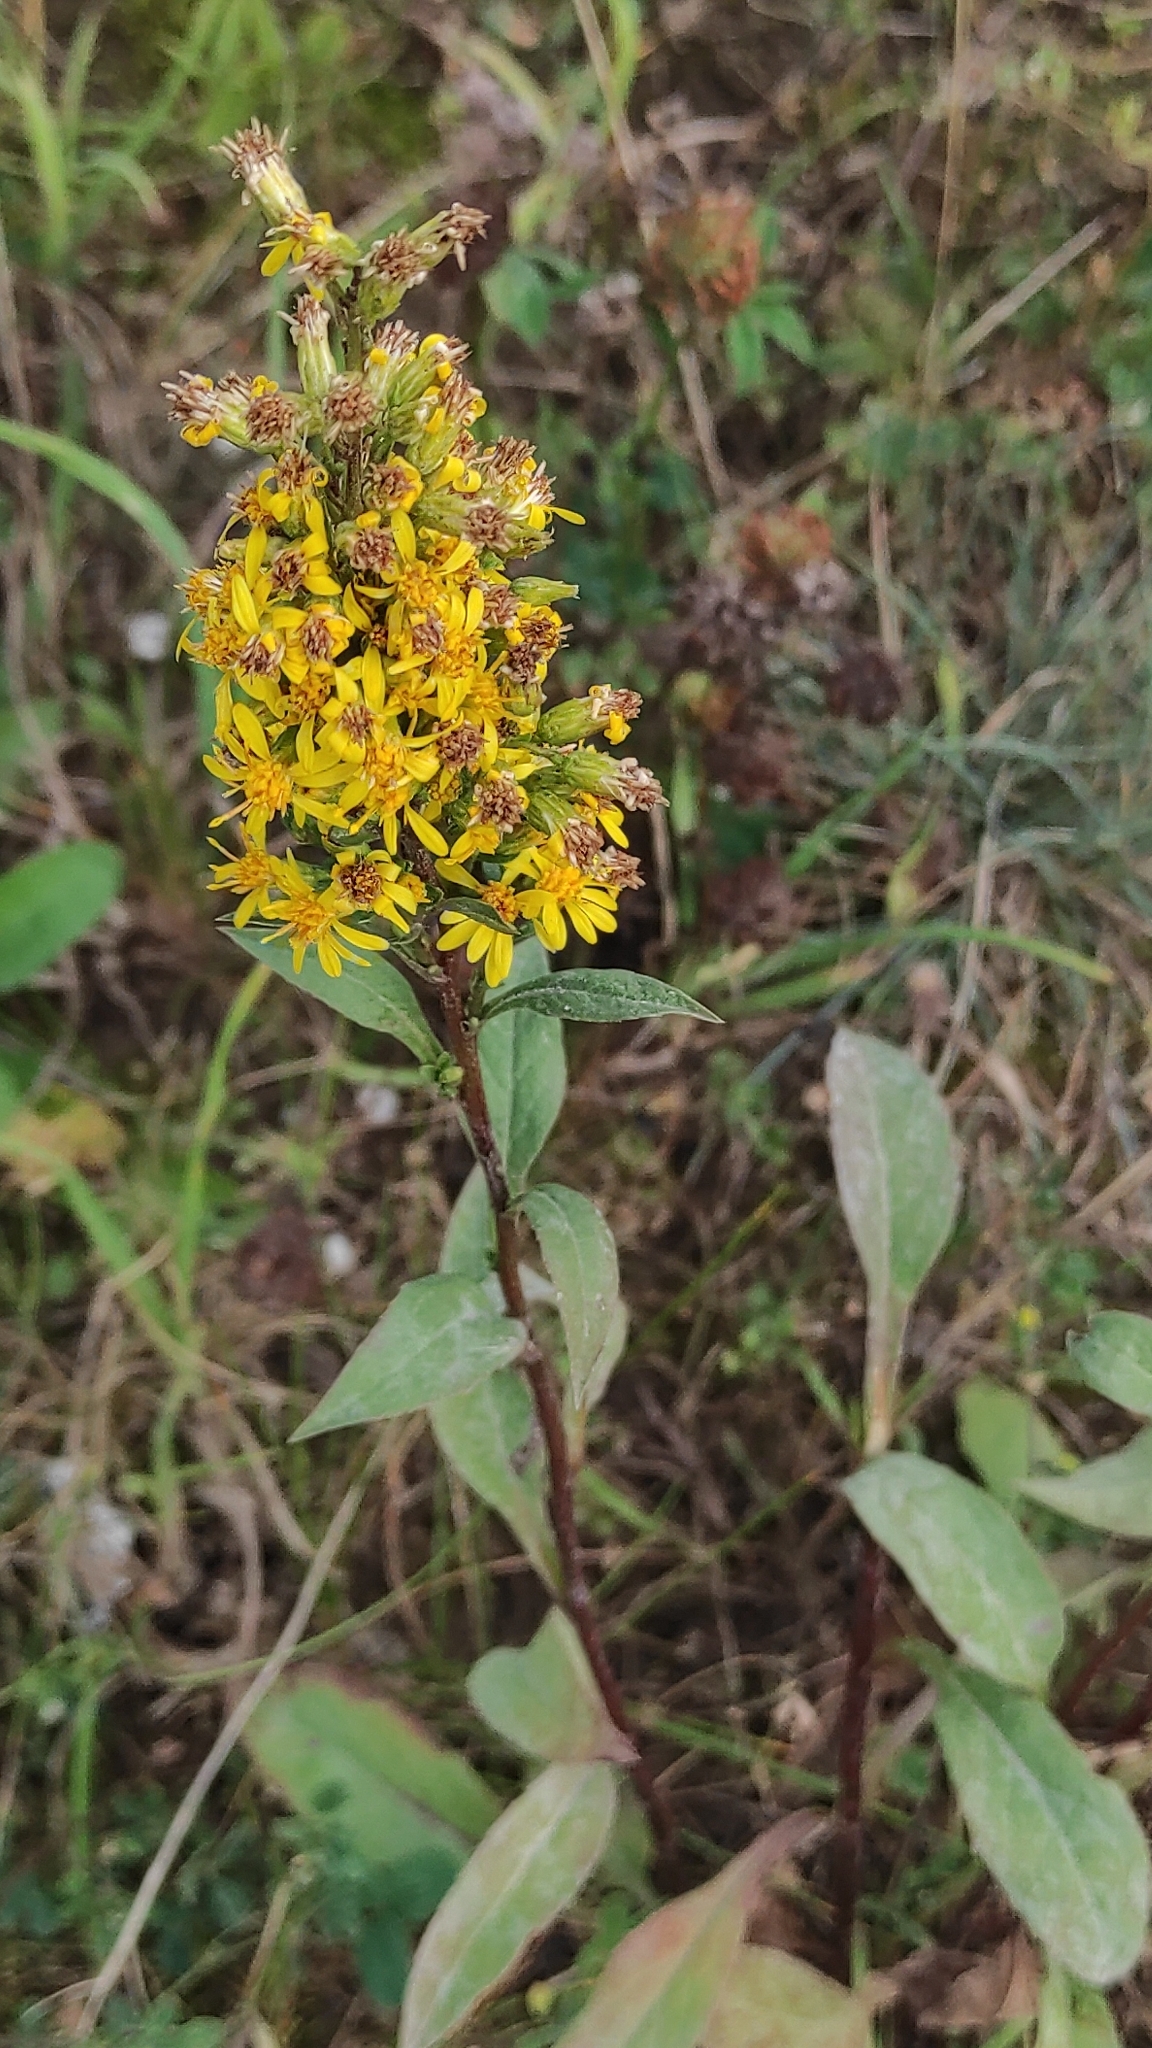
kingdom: Plantae
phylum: Tracheophyta
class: Magnoliopsida
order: Asterales
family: Asteraceae
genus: Solidago
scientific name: Solidago virgaurea
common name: Goldenrod
